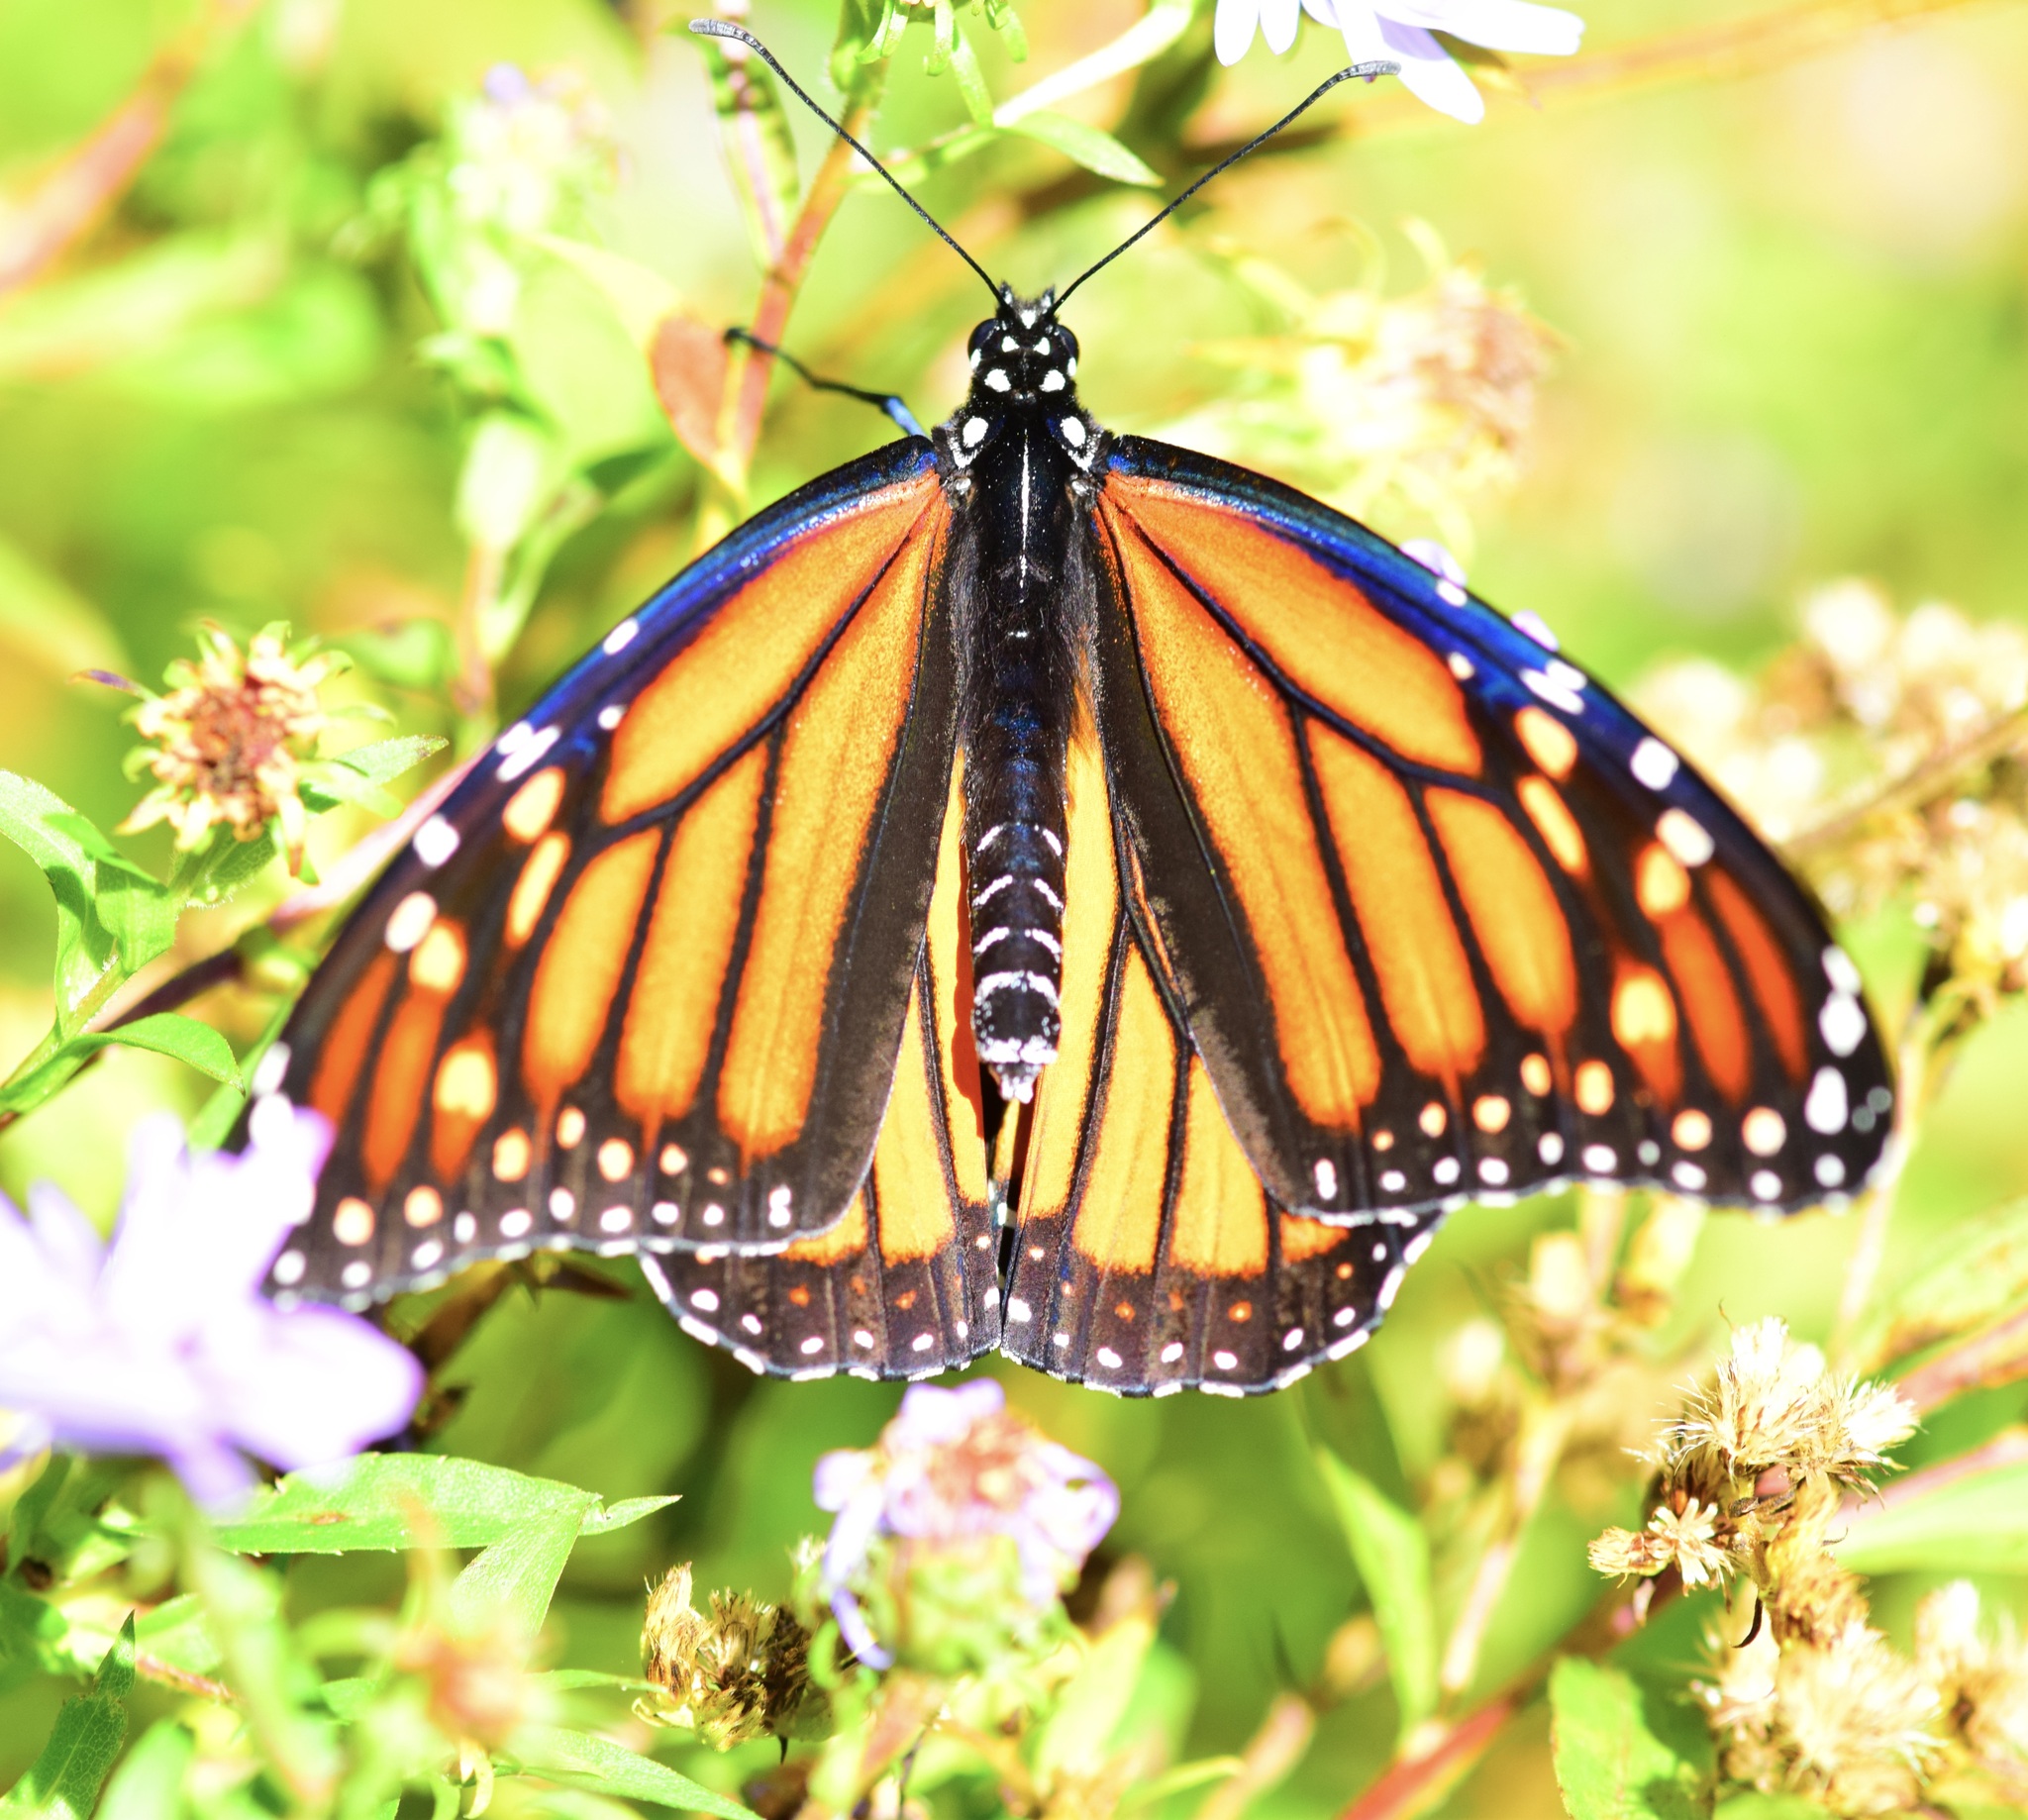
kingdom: Animalia
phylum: Arthropoda
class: Insecta
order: Lepidoptera
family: Nymphalidae
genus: Danaus
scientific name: Danaus plexippus
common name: Monarch
